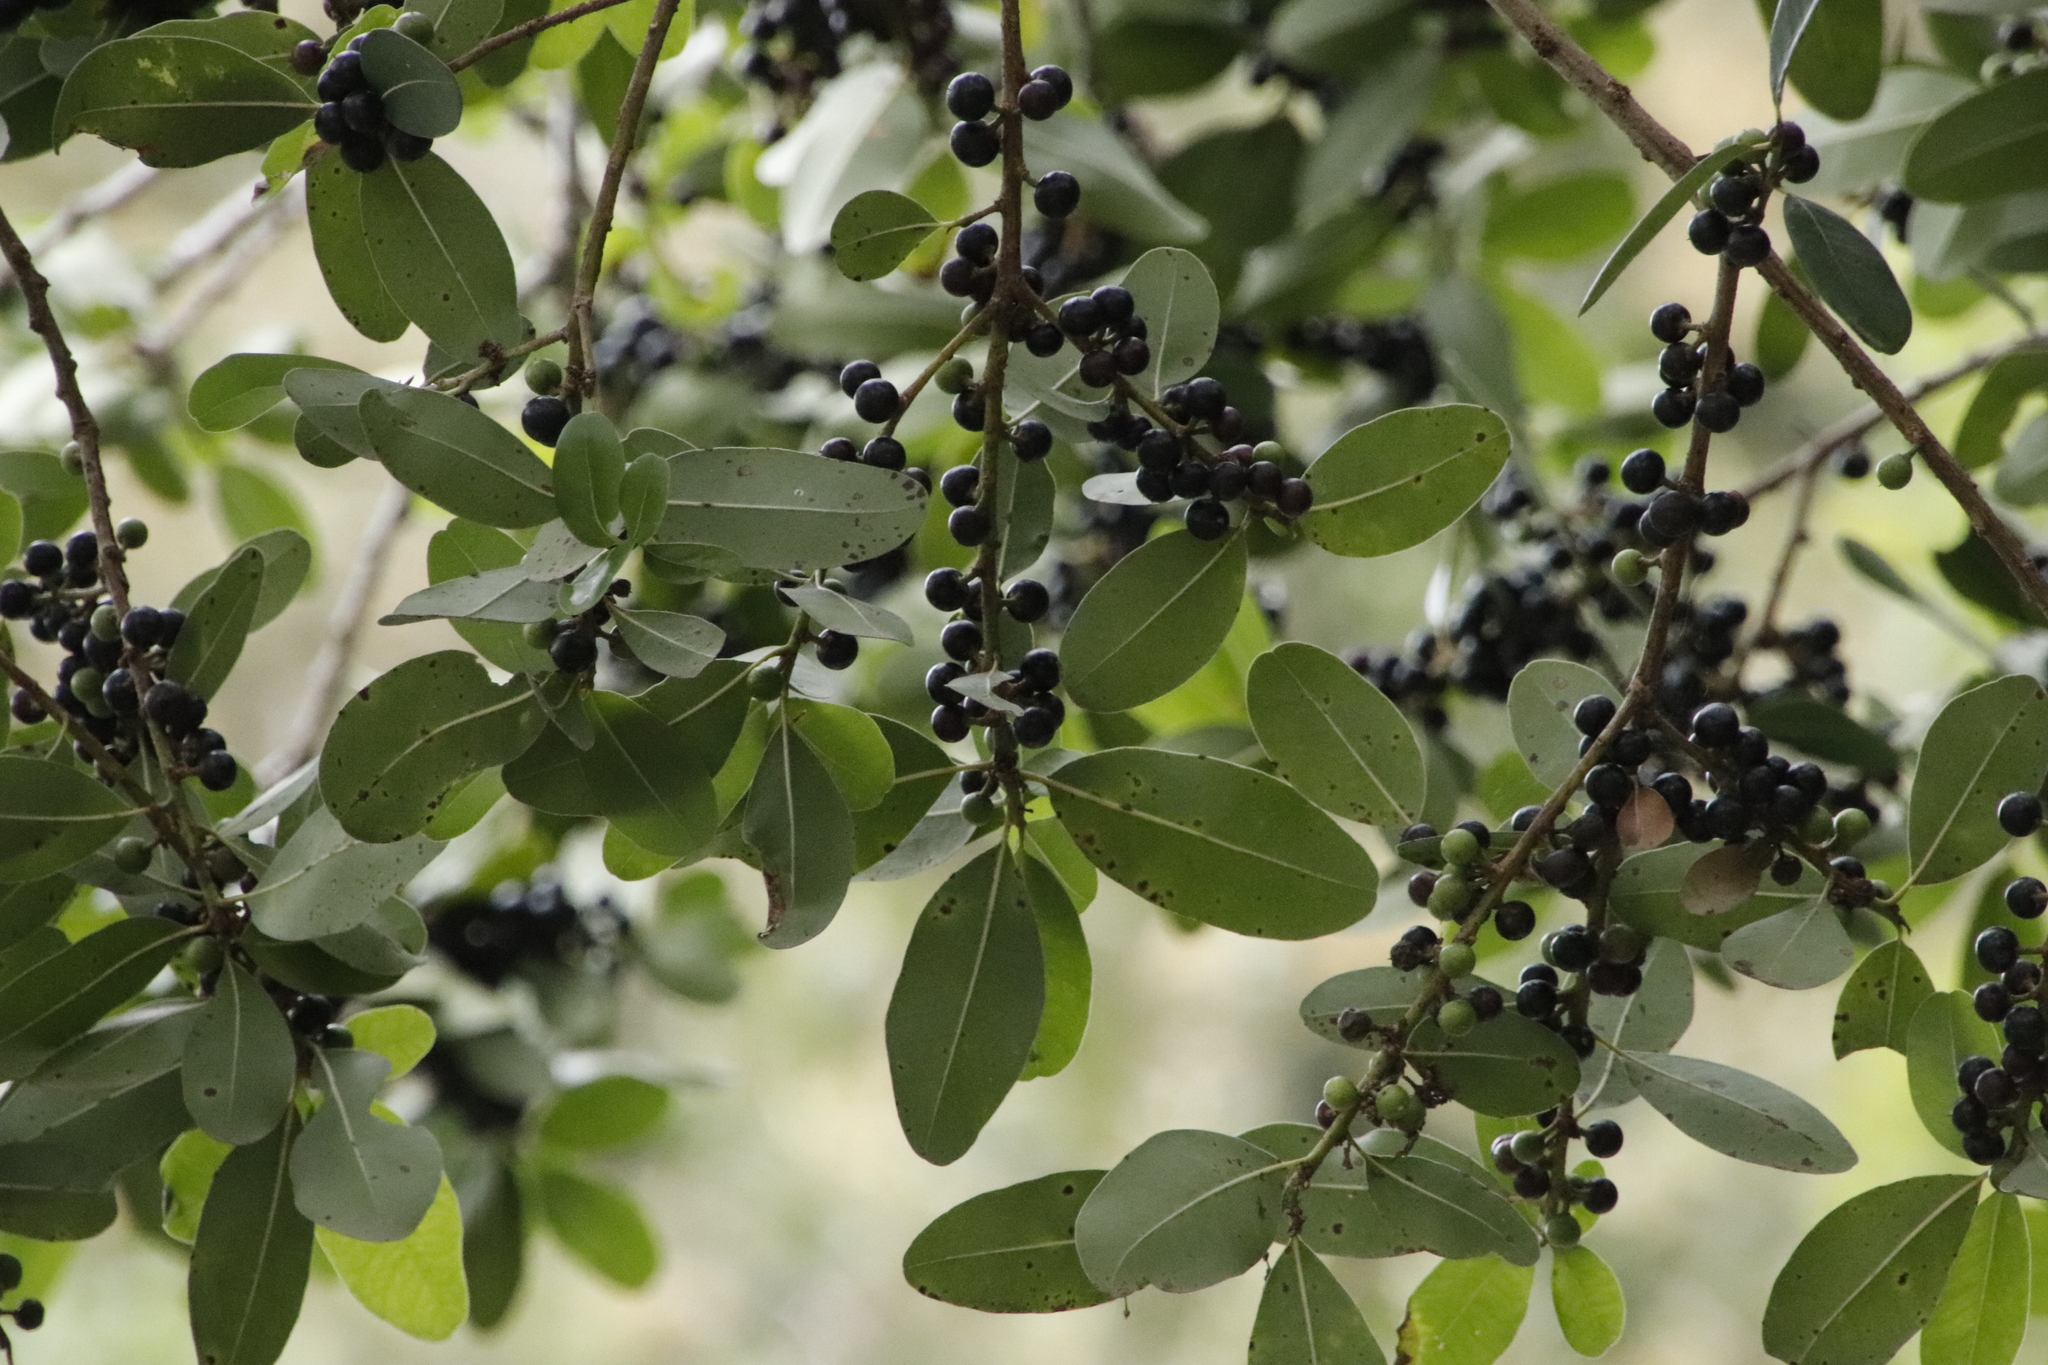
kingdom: Plantae
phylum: Tracheophyta
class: Magnoliopsida
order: Ericales
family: Sapotaceae
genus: Sideroxylon
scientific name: Sideroxylon inerme
